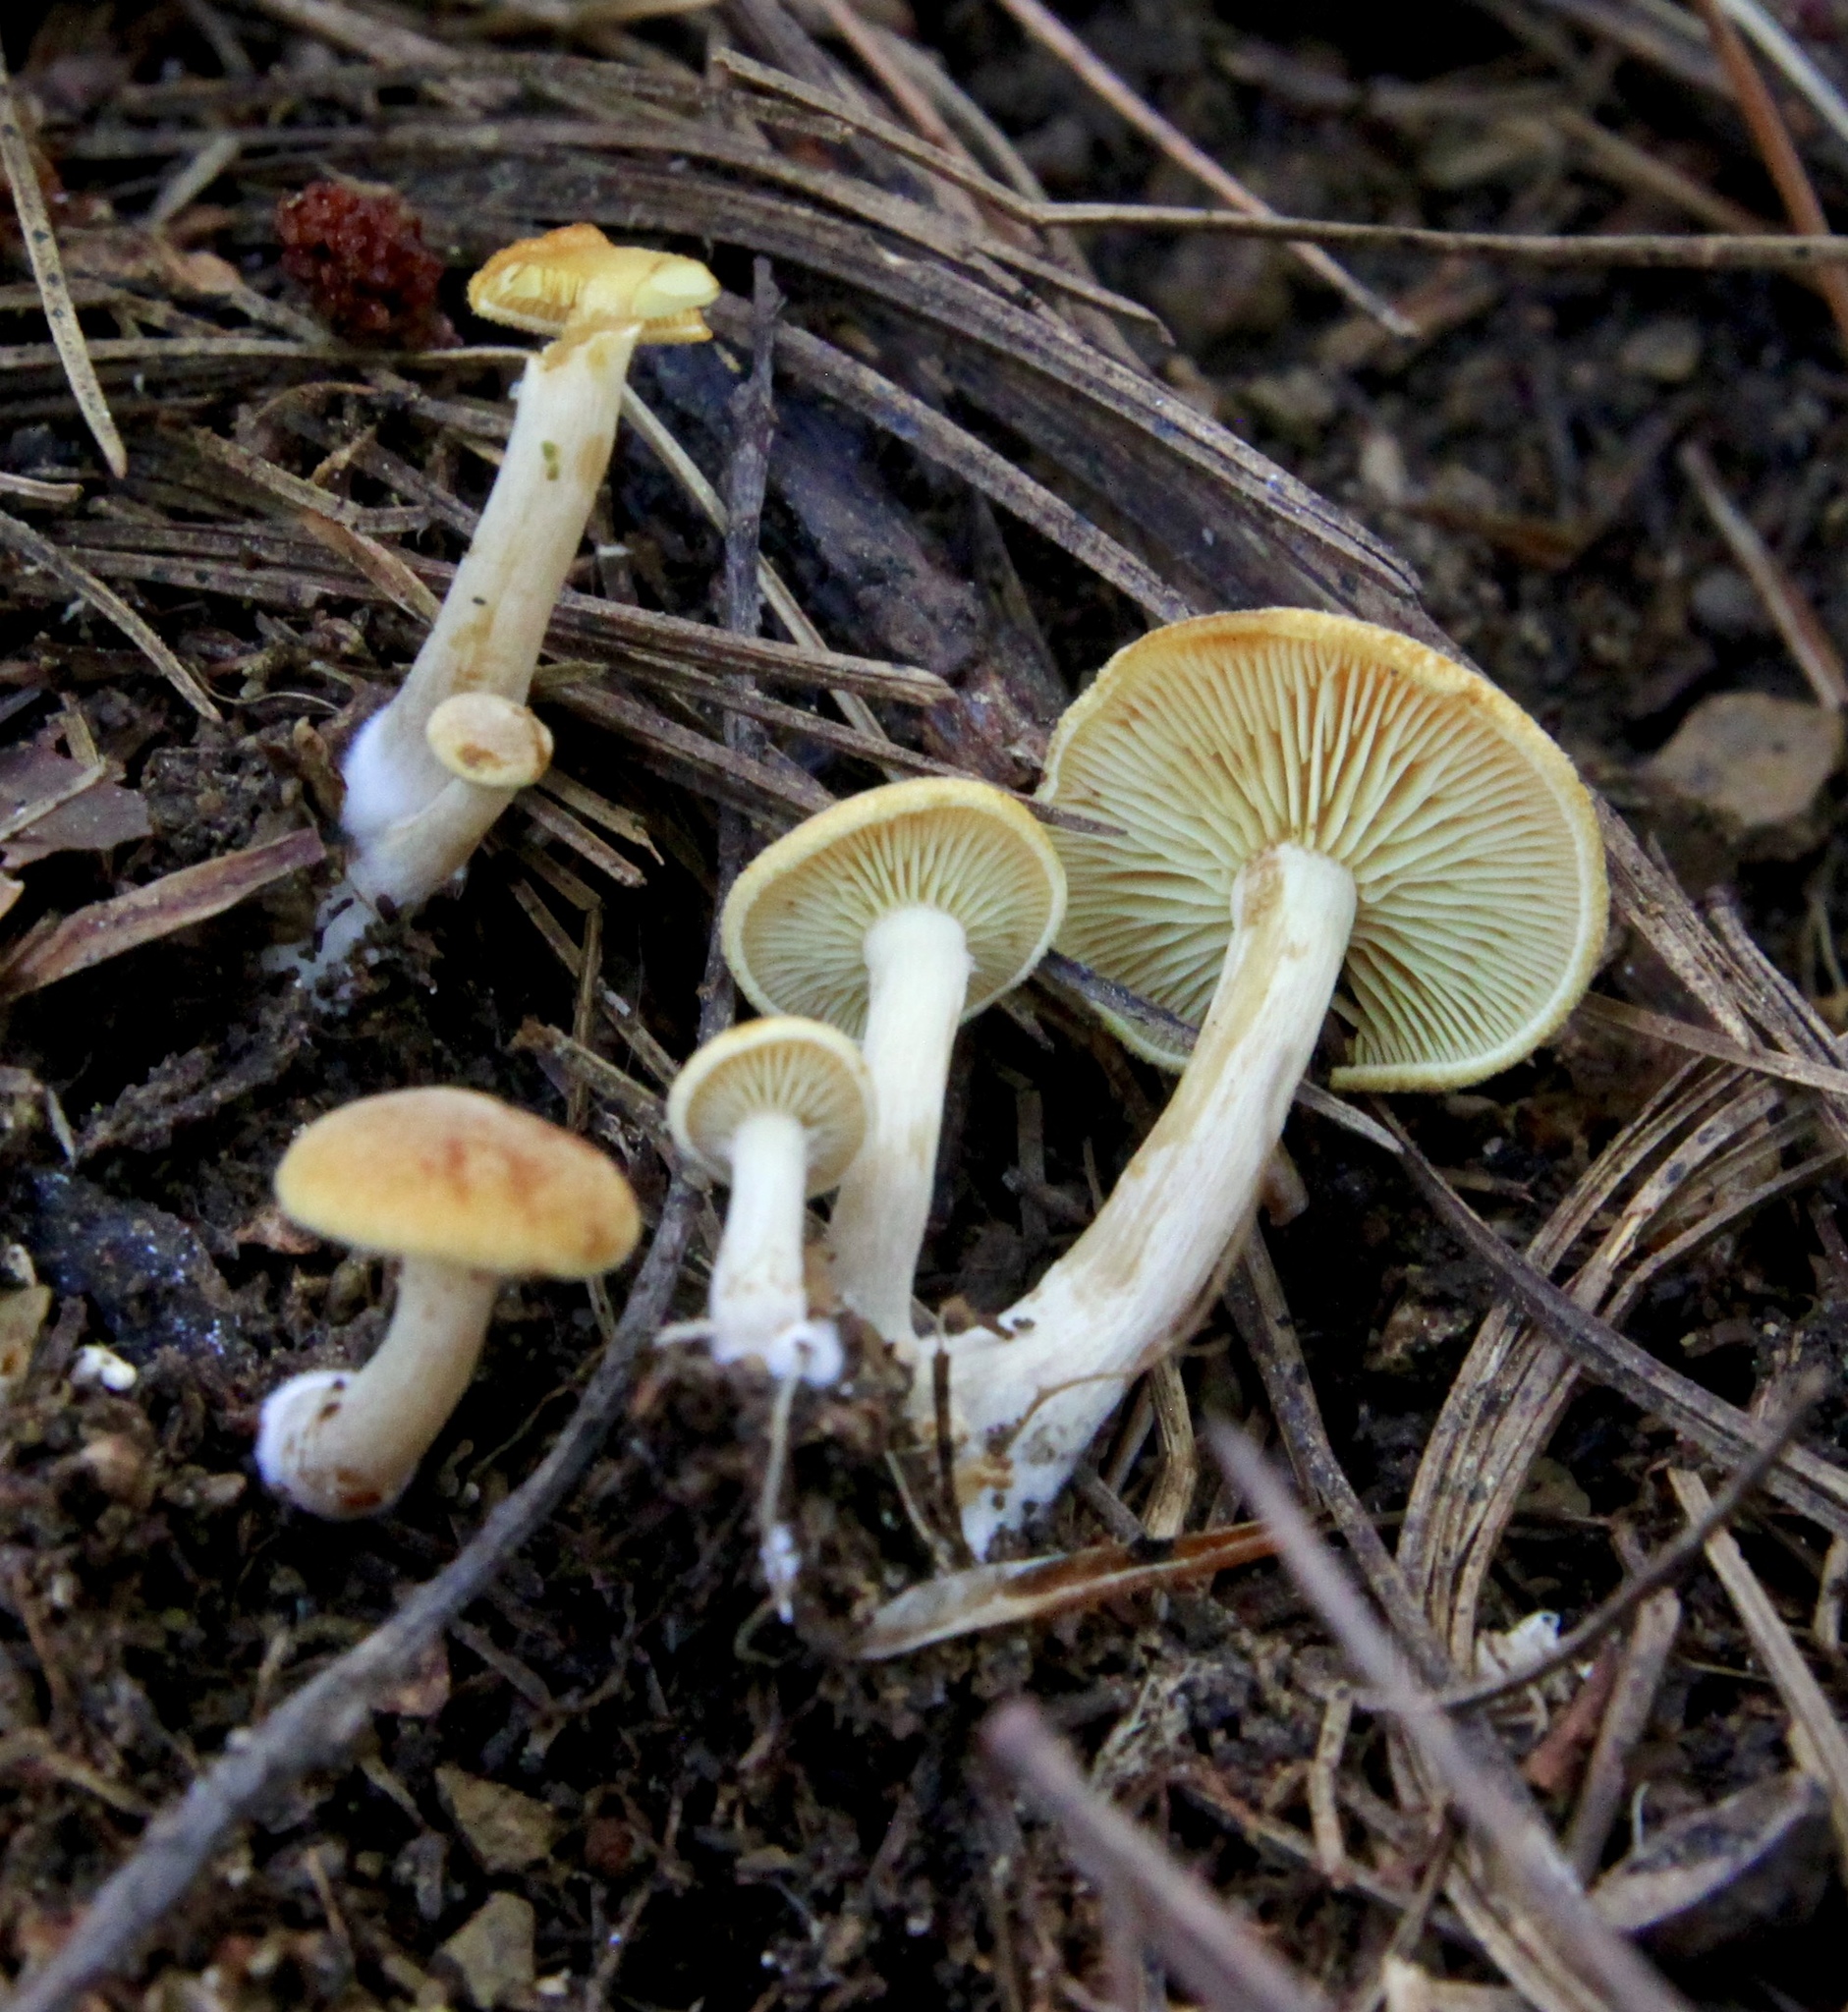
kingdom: Fungi
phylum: Basidiomycota
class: Agaricomycetes
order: Agaricales
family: Physalacriaceae
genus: Desarmillaria
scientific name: Desarmillaria caespitosa
